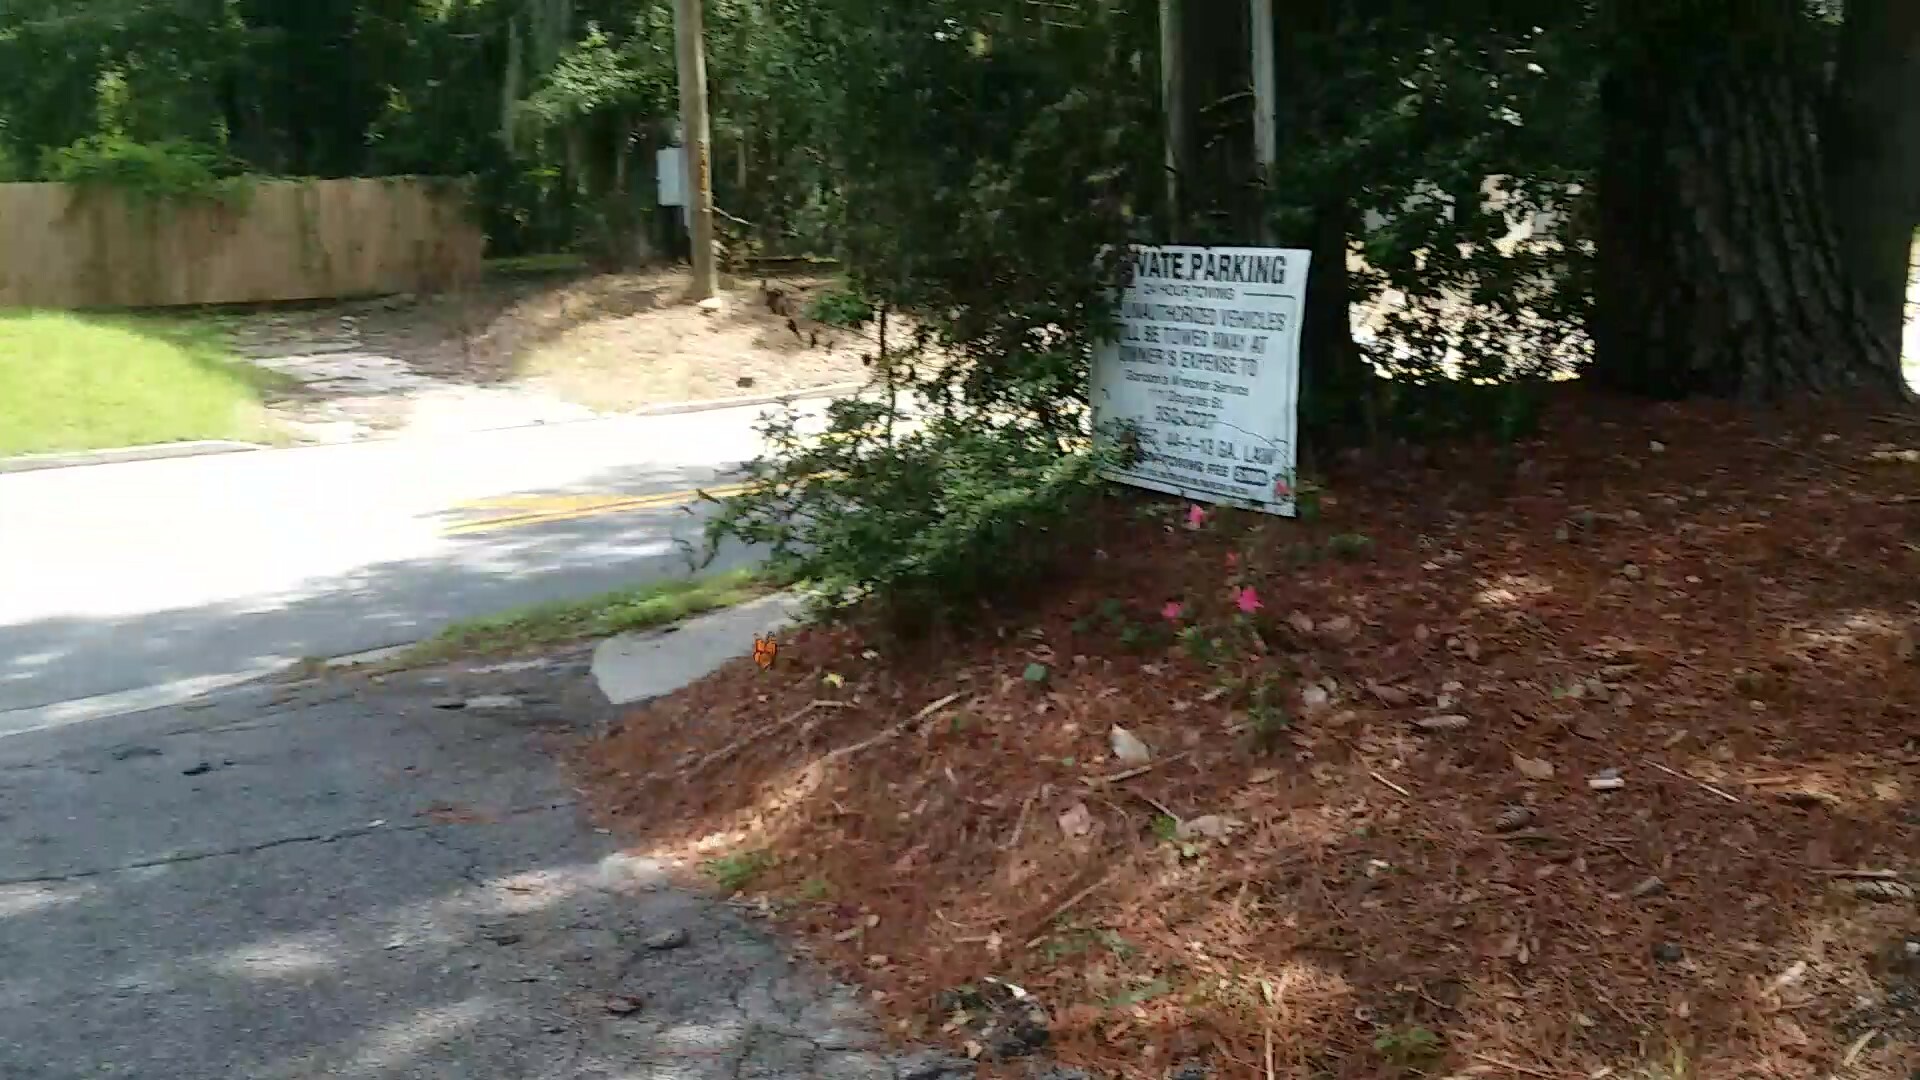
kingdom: Animalia
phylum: Arthropoda
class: Insecta
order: Lepidoptera
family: Nymphalidae
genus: Danaus
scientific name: Danaus plexippus
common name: Monarch
